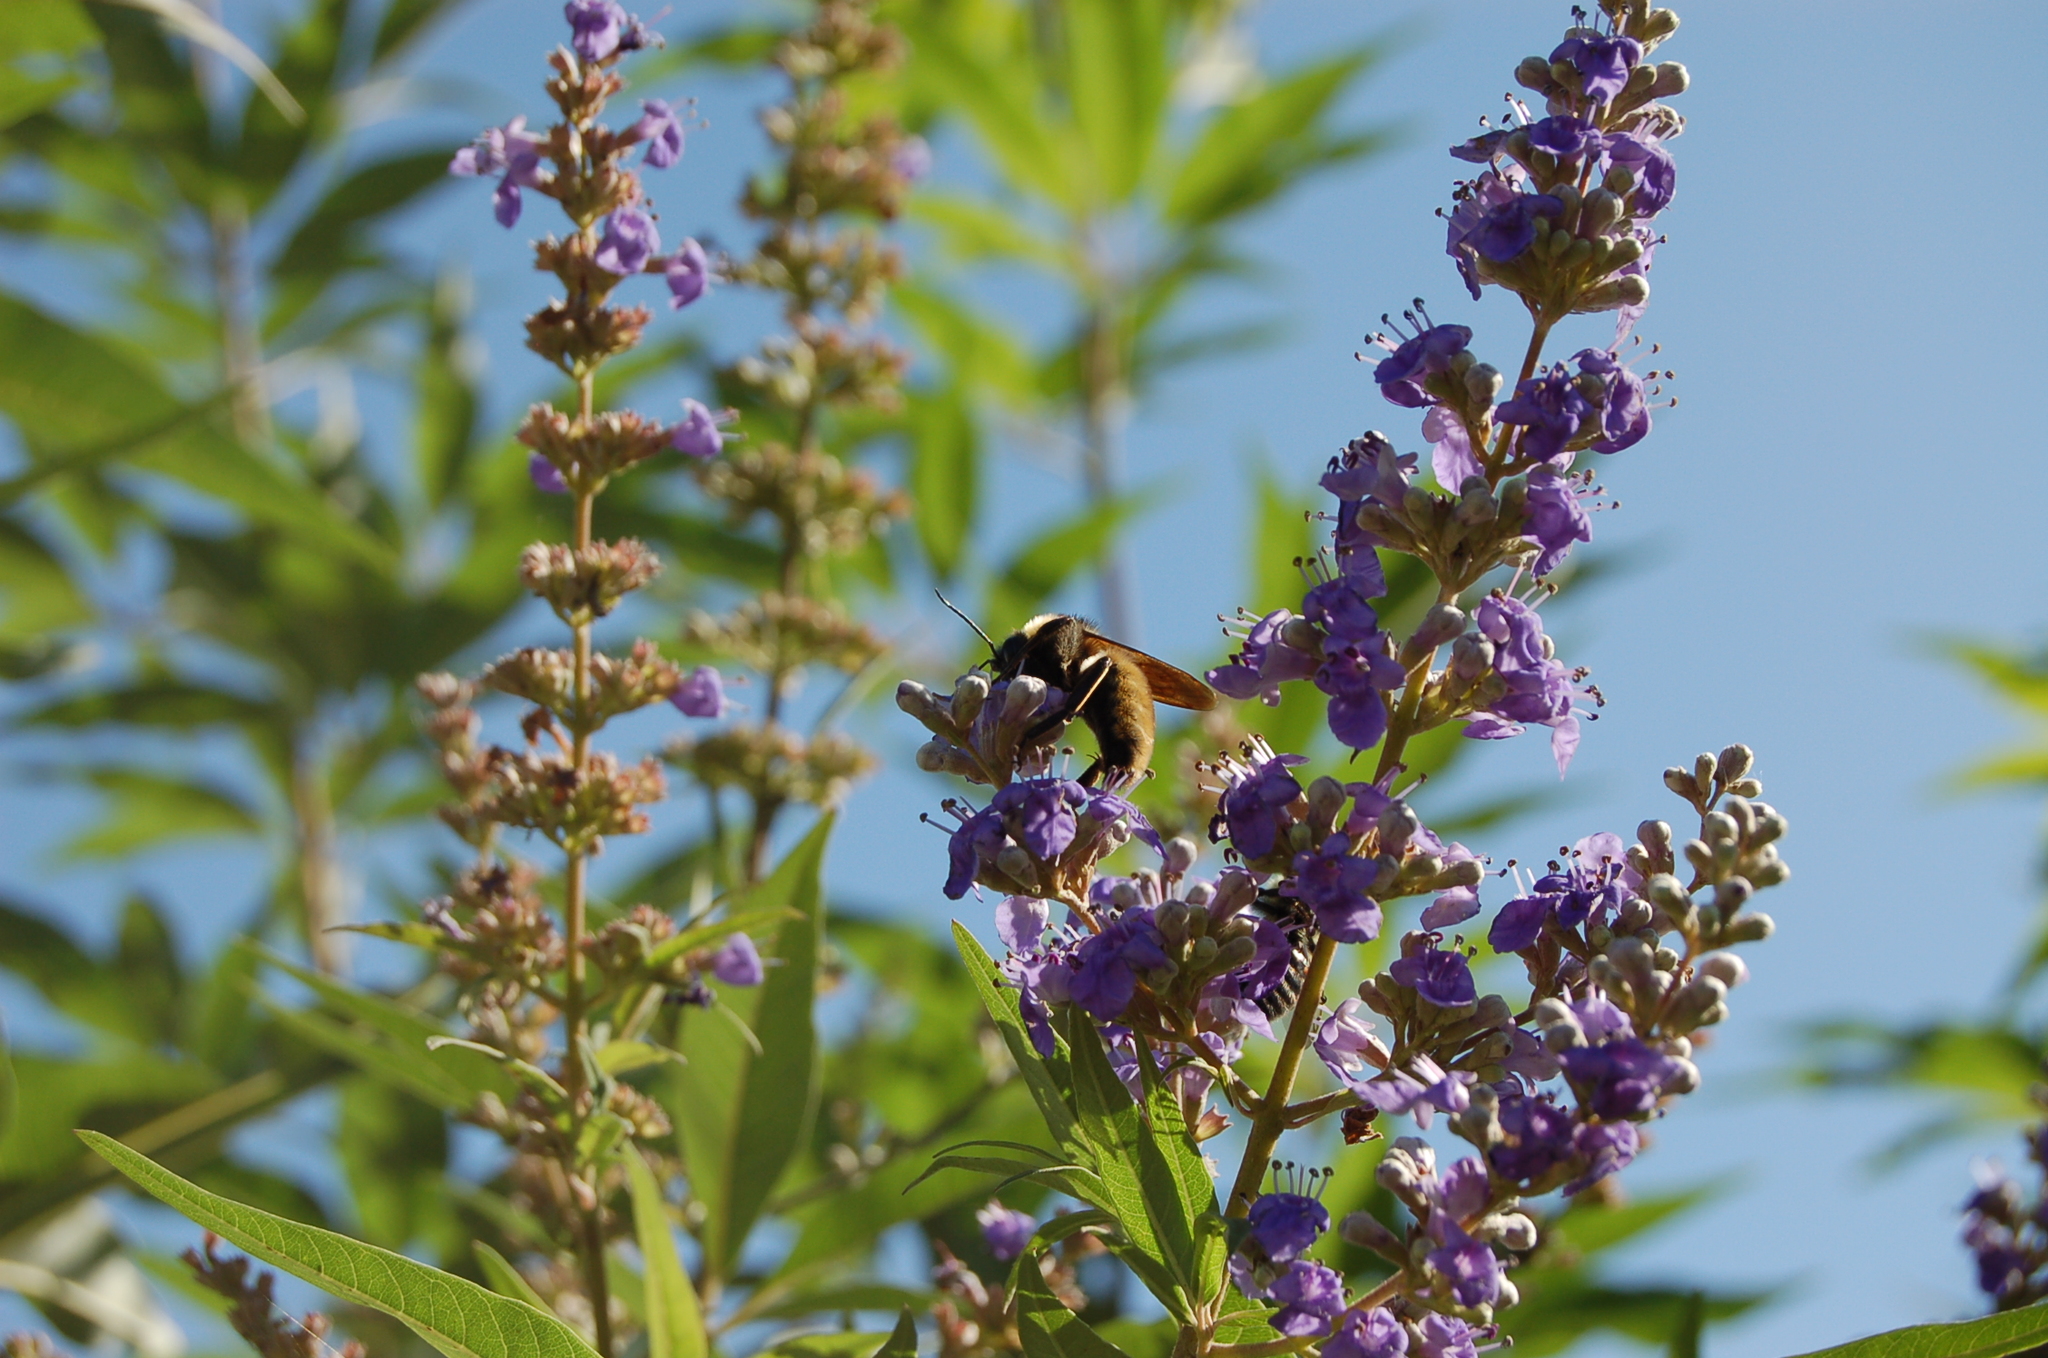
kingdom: Animalia
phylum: Arthropoda
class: Insecta
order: Hymenoptera
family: Apidae
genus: Bombus
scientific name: Bombus pensylvanicus
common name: Bumble bee
